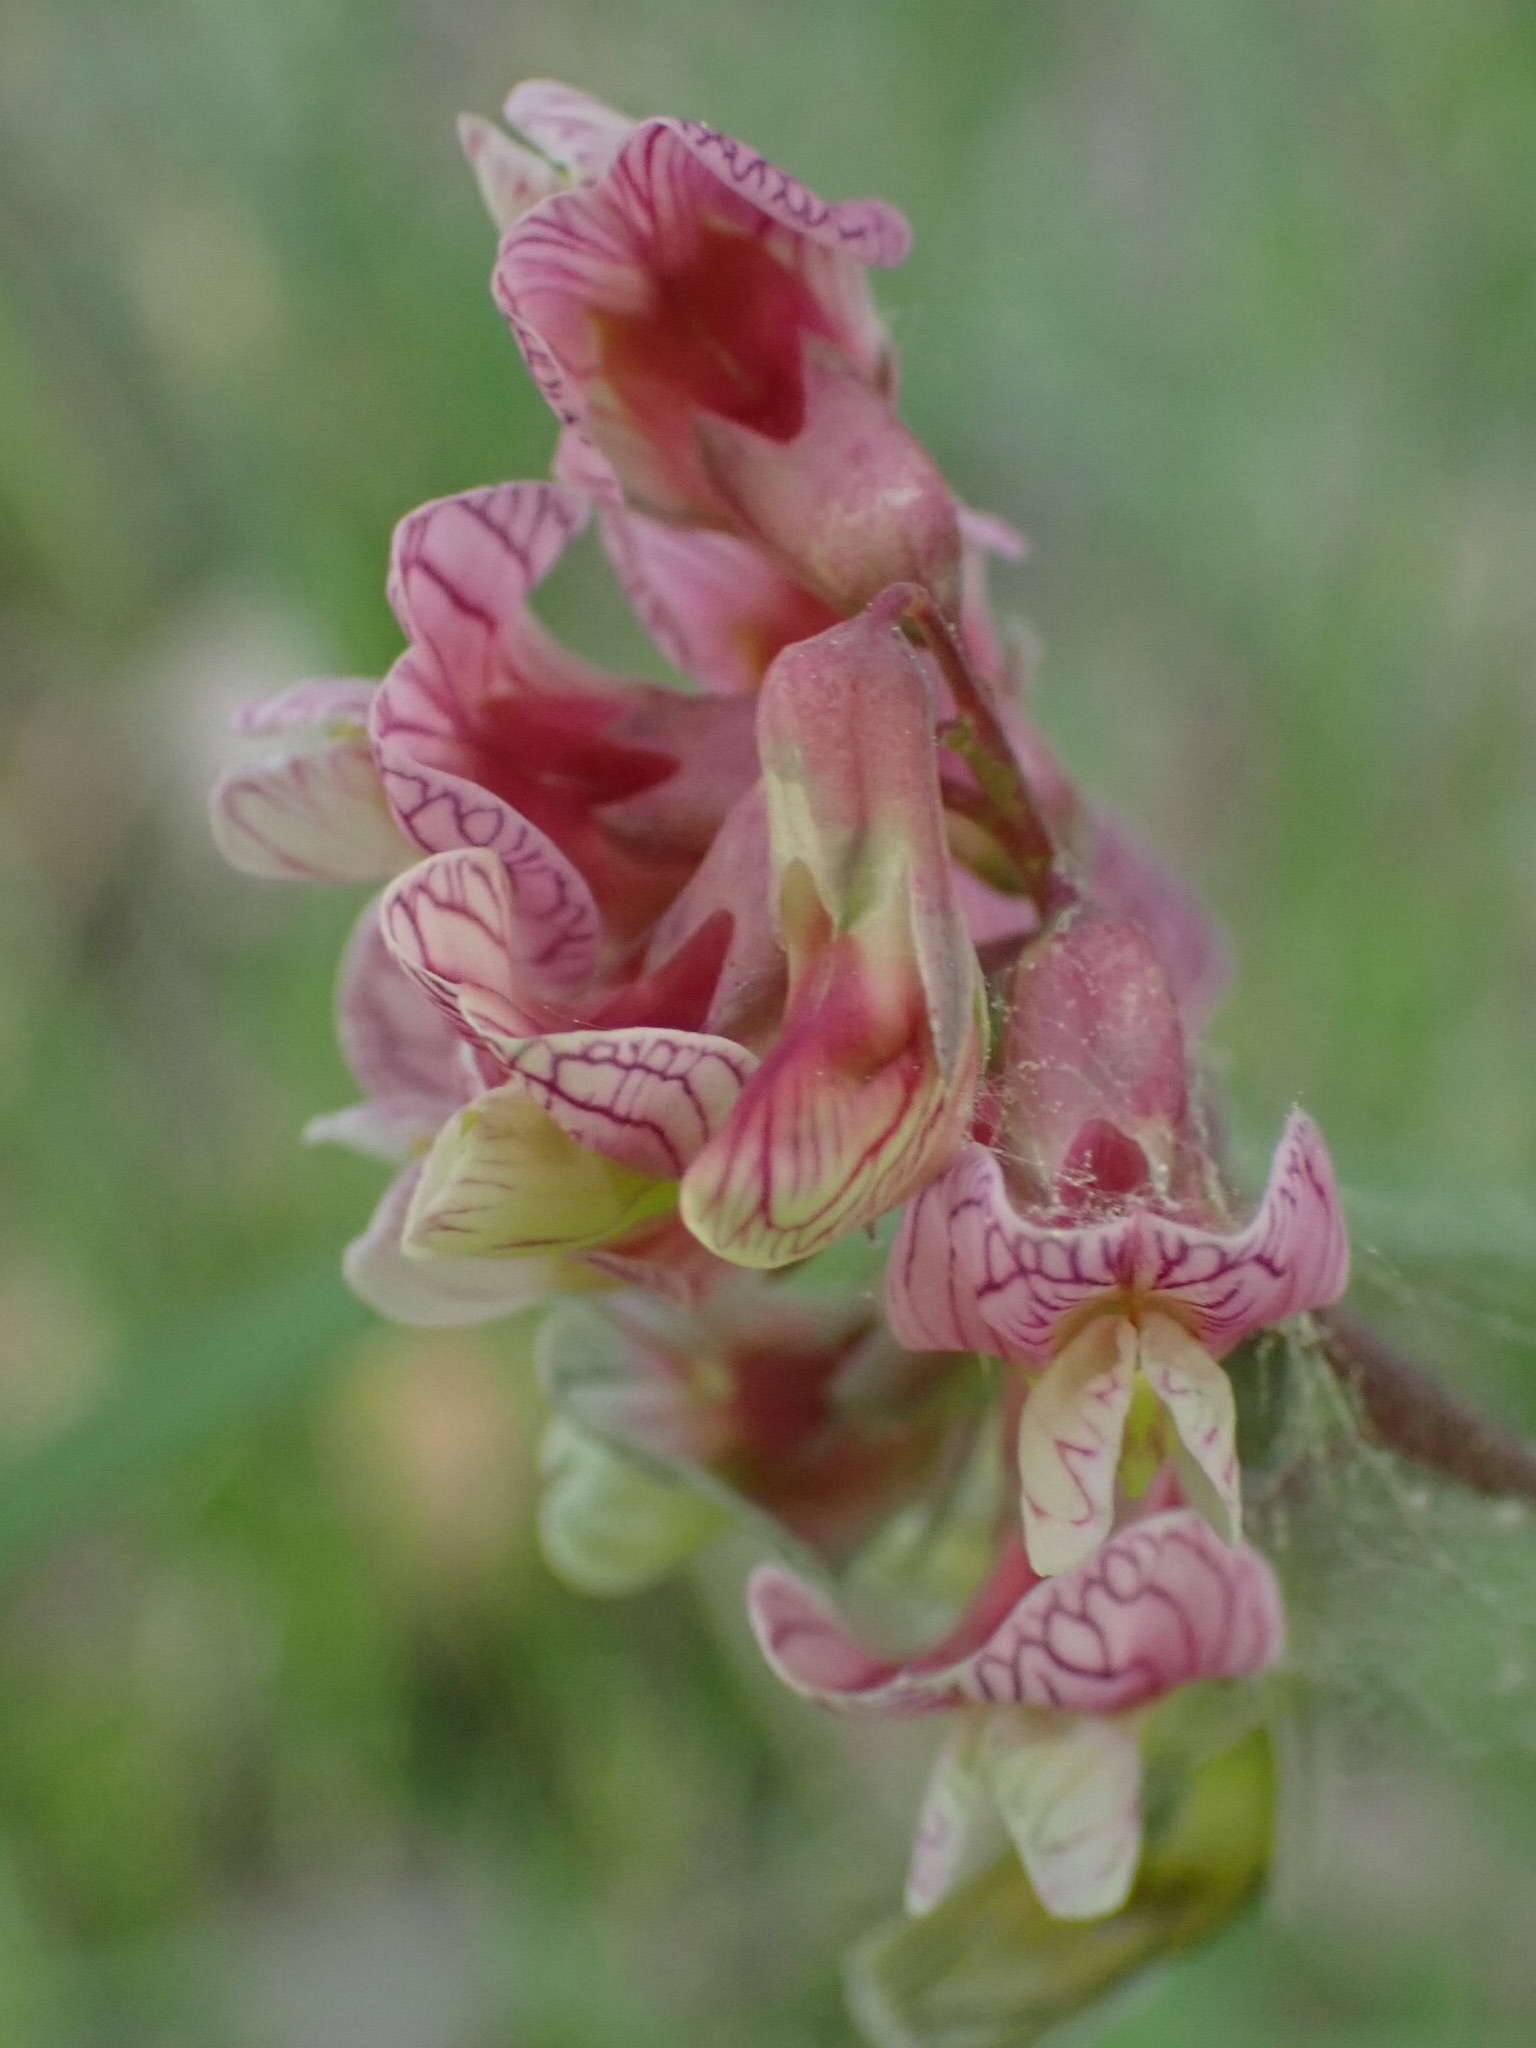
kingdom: Plantae
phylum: Tracheophyta
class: Magnoliopsida
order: Fabales
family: Fabaceae
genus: Lathyrus
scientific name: Lathyrus pisiformis
